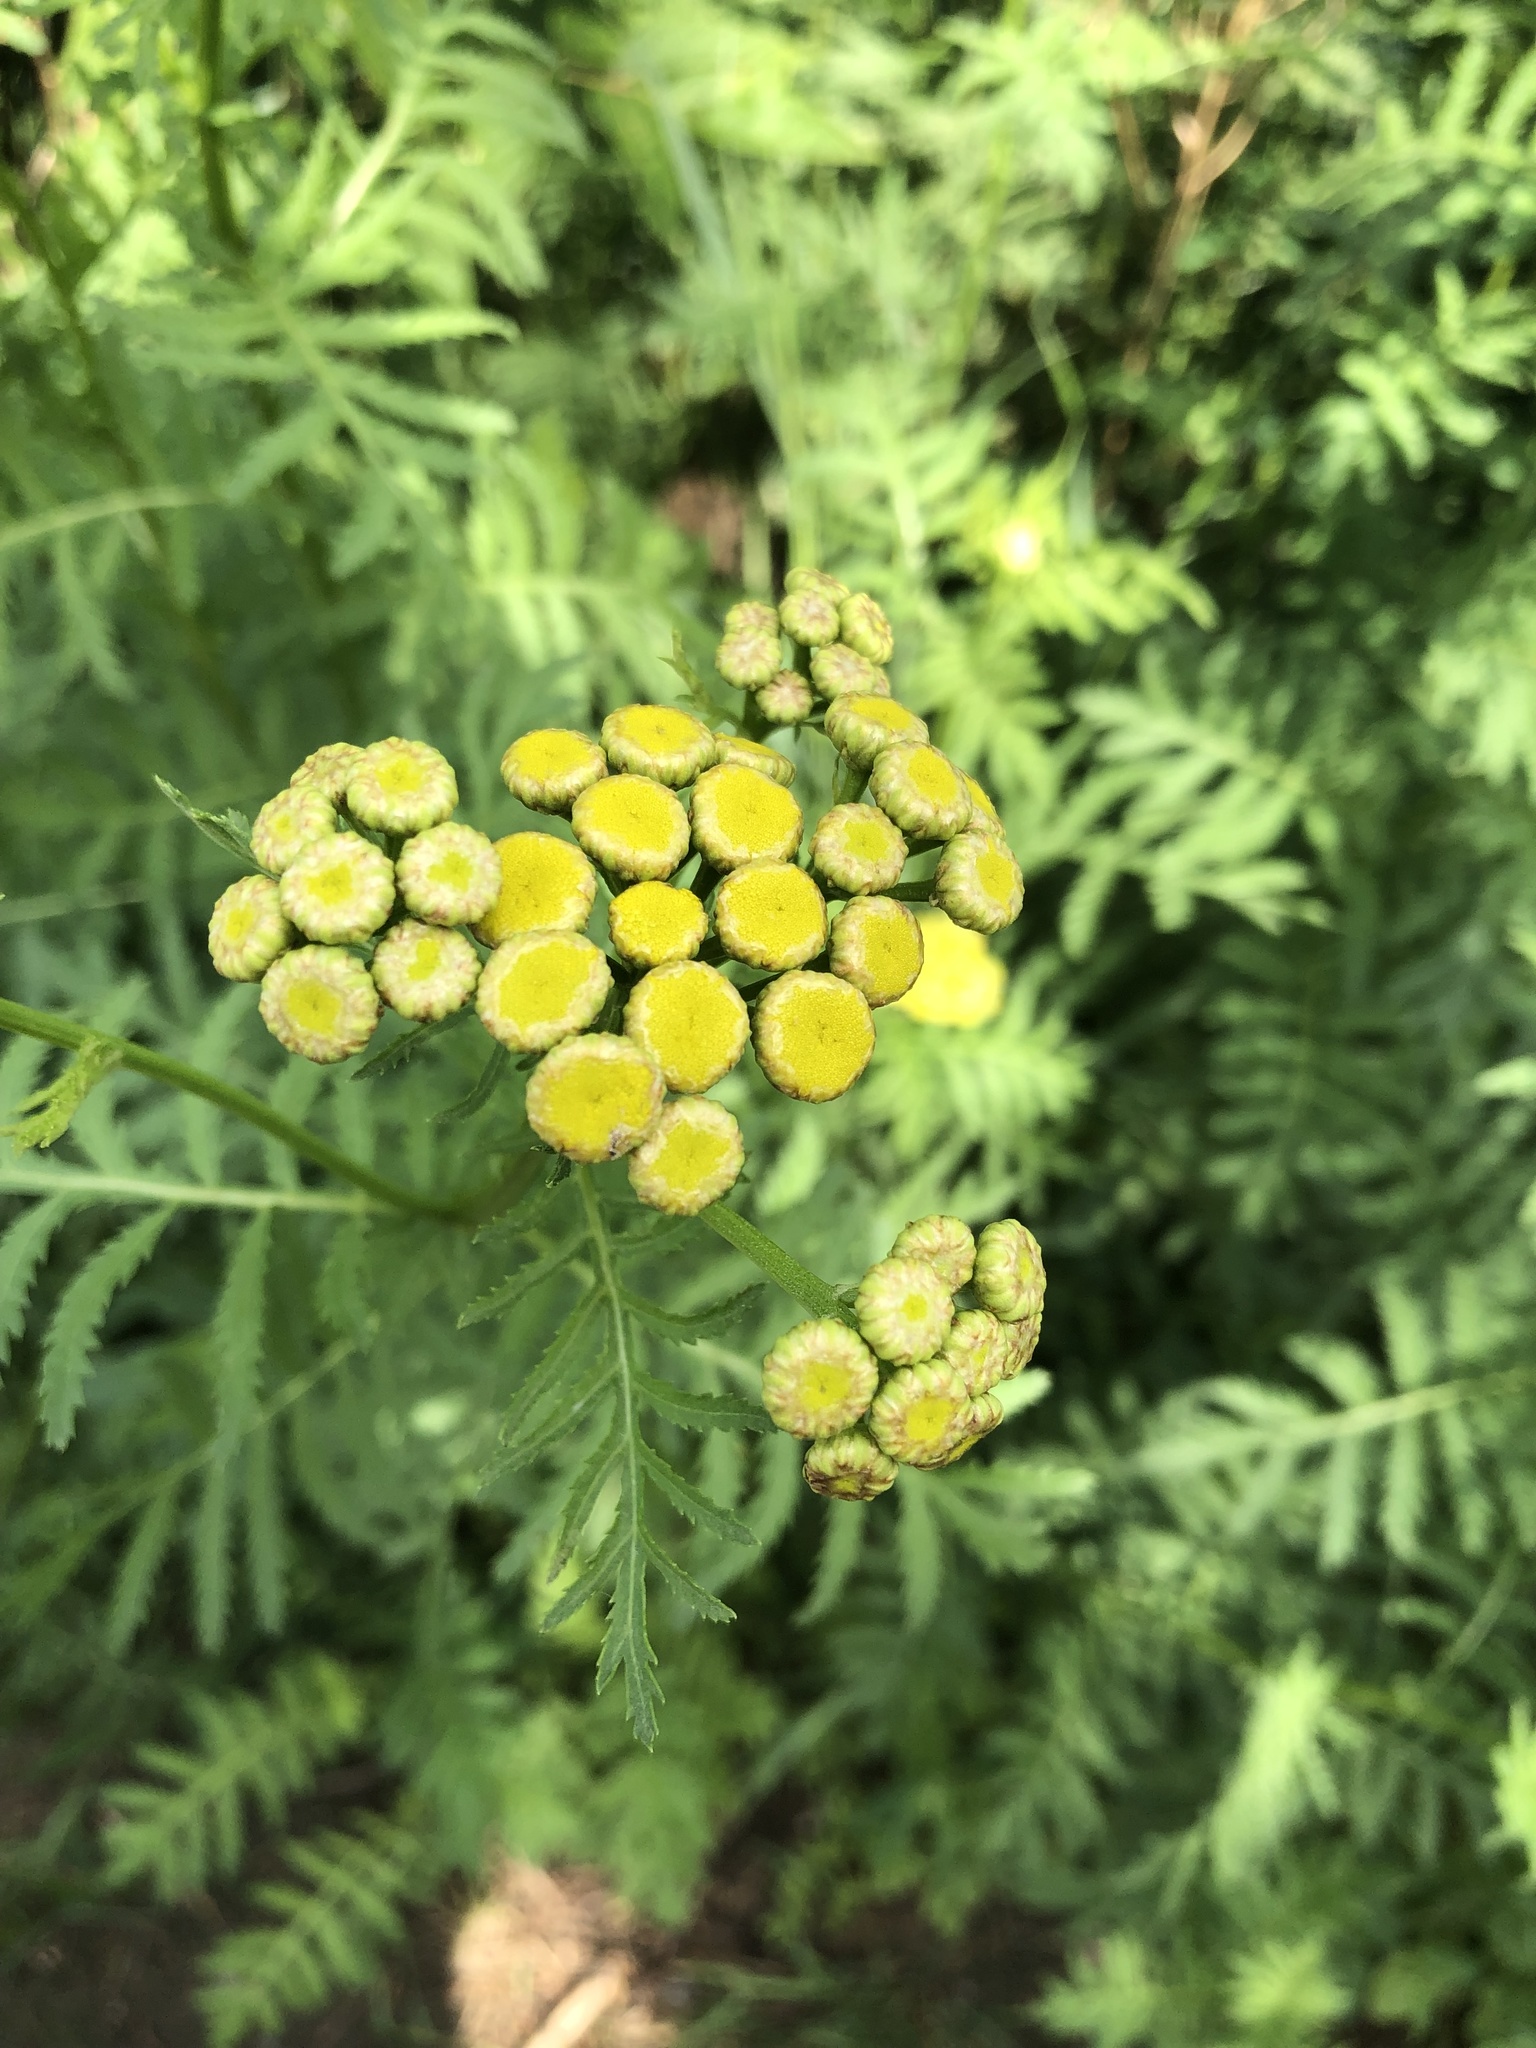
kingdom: Plantae
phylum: Tracheophyta
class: Magnoliopsida
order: Asterales
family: Asteraceae
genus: Tanacetum
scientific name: Tanacetum vulgare
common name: Common tansy
